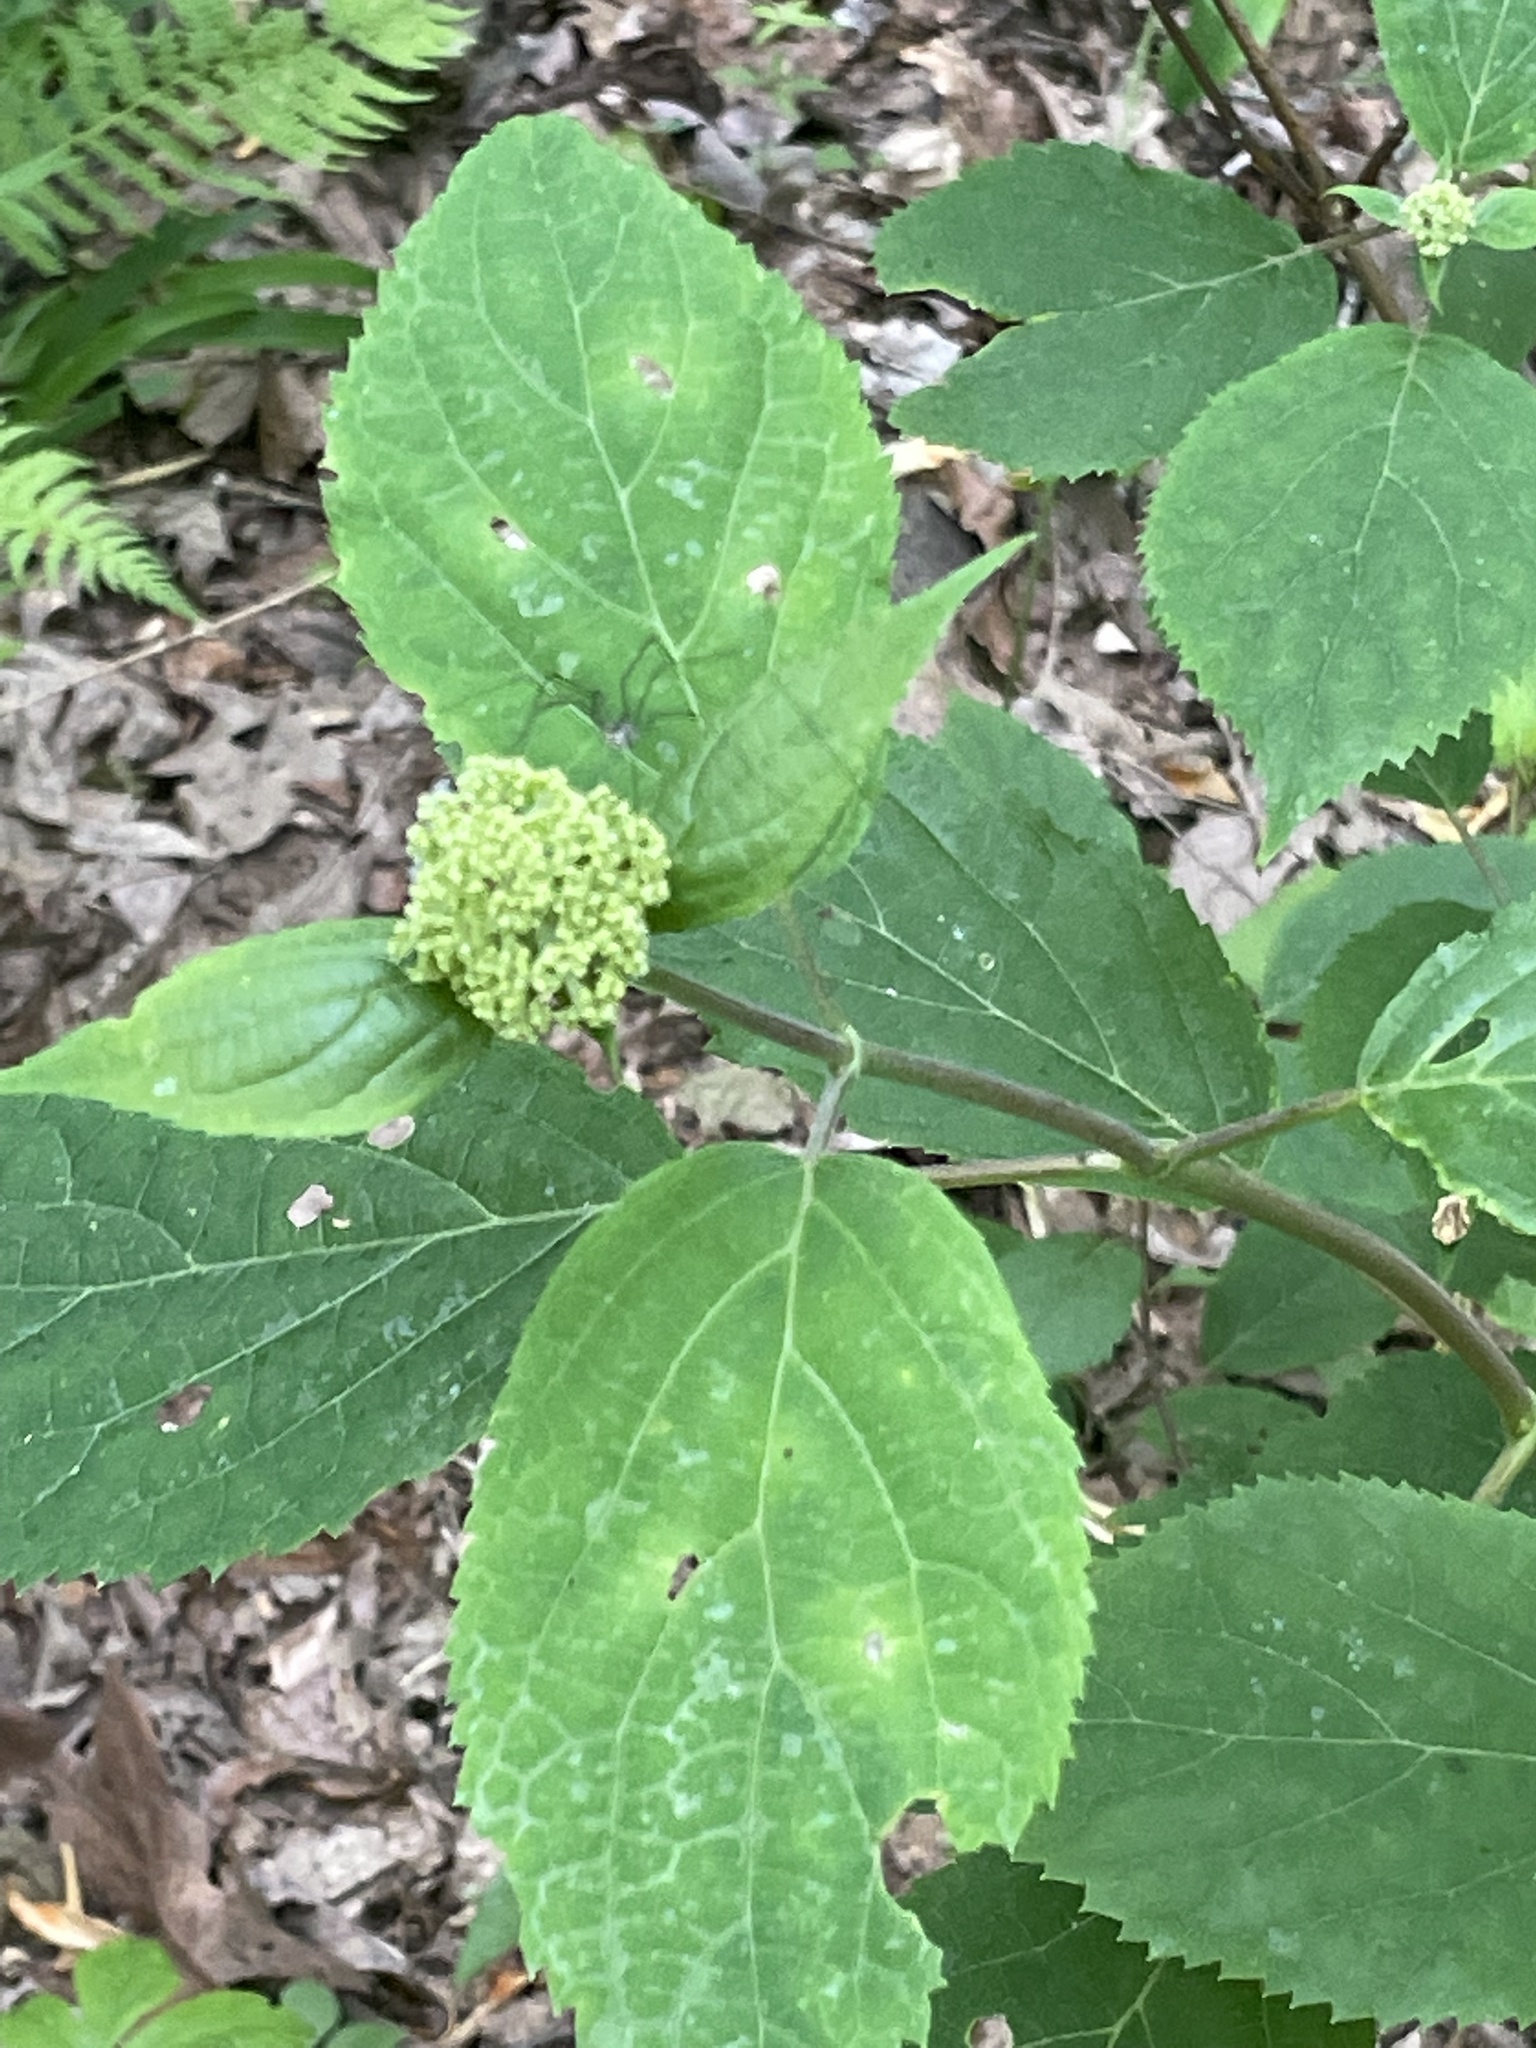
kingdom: Plantae
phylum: Tracheophyta
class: Magnoliopsida
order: Cornales
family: Hydrangeaceae
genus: Hydrangea
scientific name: Hydrangea arborescens
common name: Sevenbark
